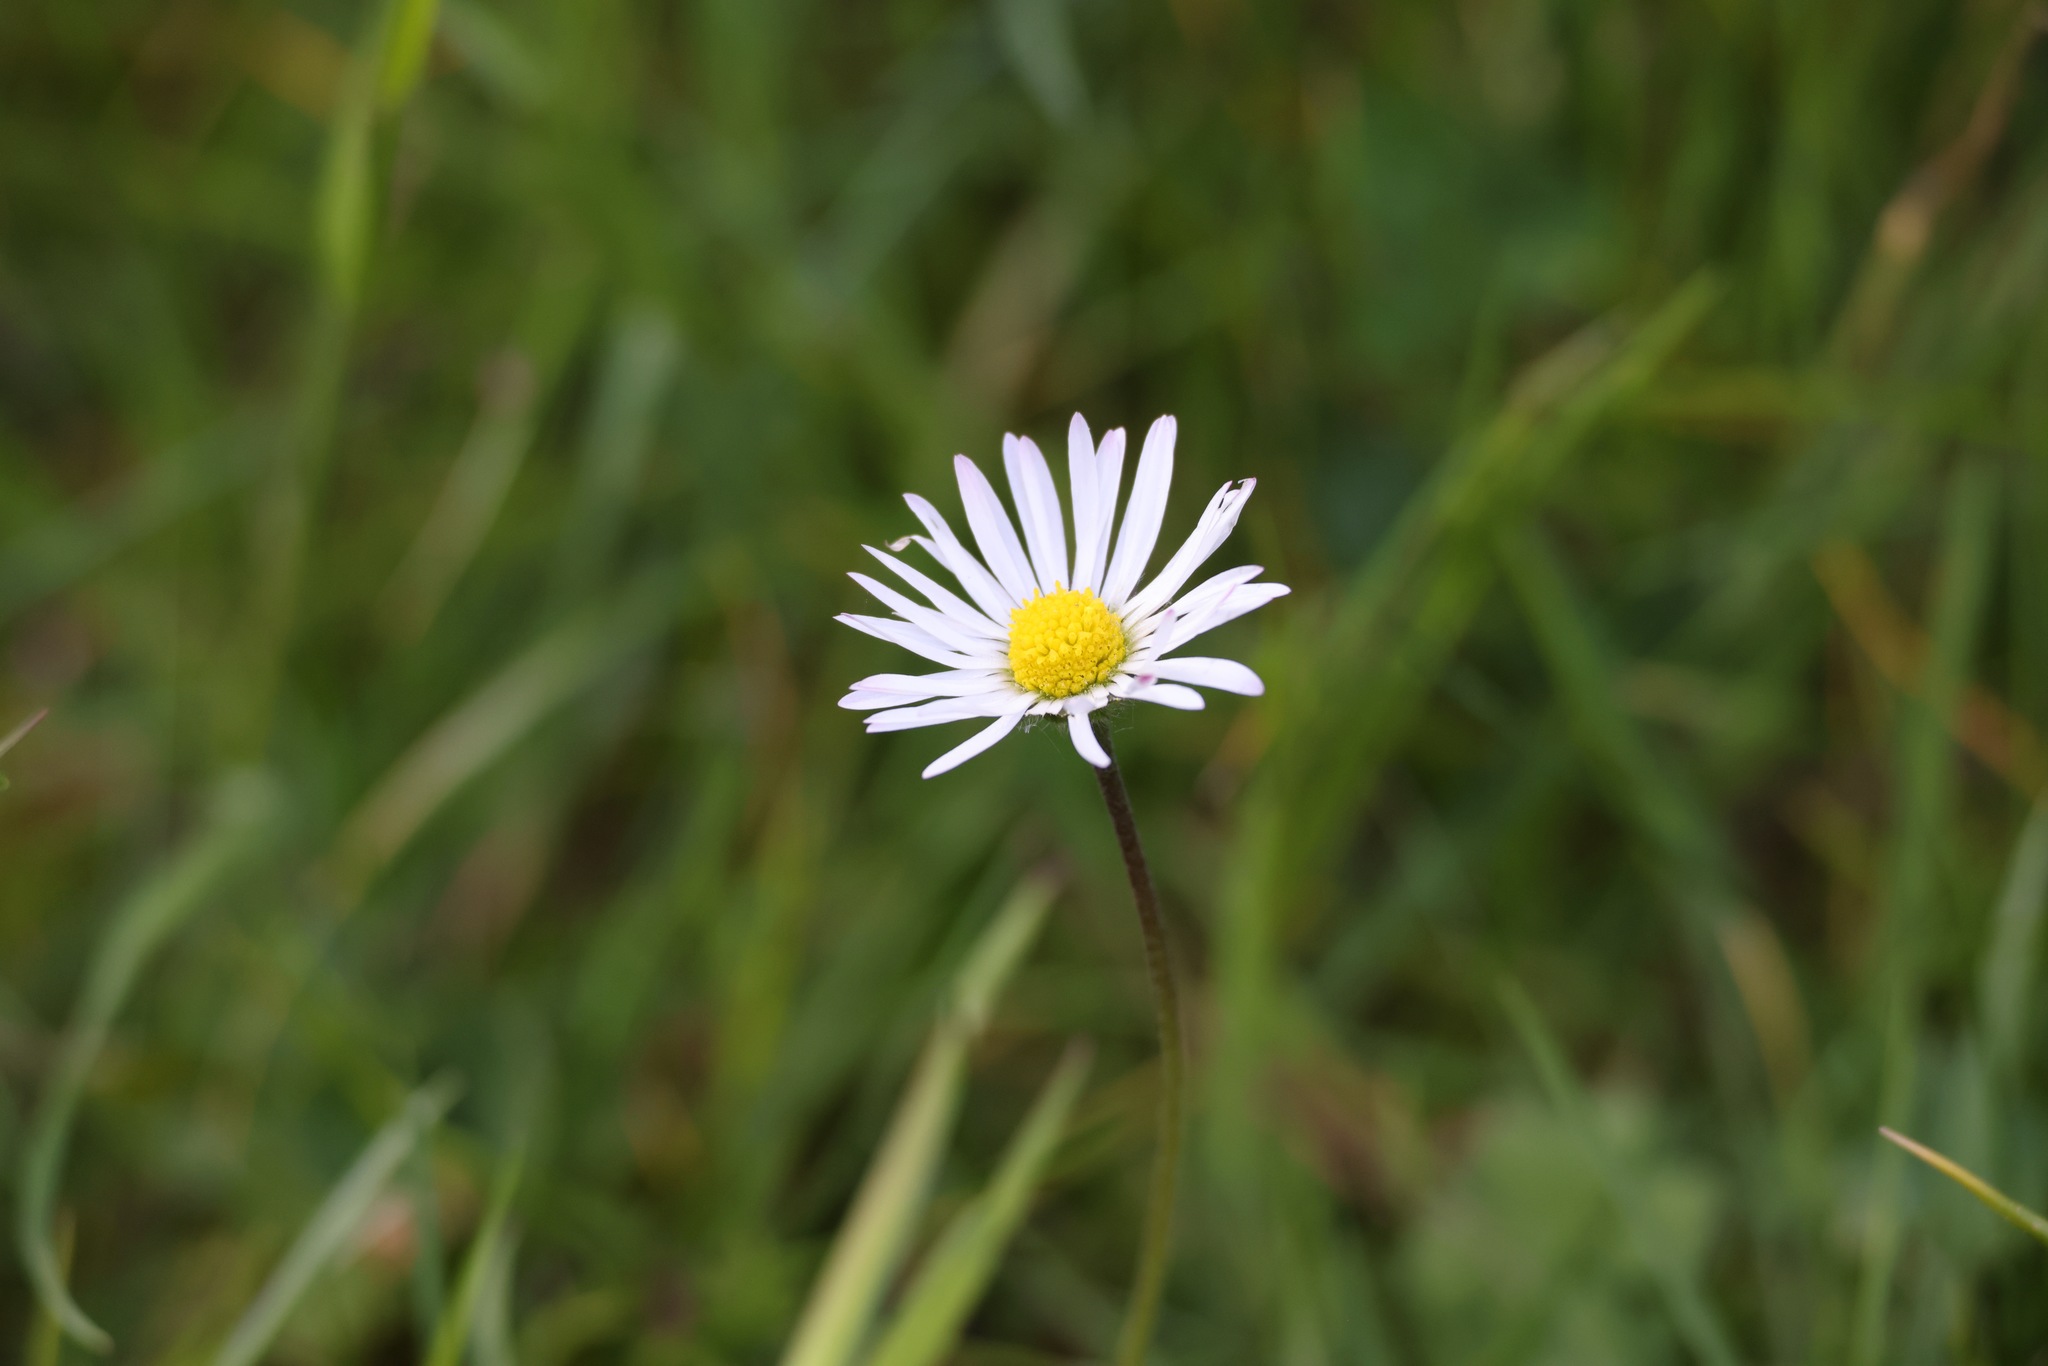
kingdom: Plantae
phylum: Tracheophyta
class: Magnoliopsida
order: Asterales
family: Asteraceae
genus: Bellis
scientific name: Bellis perennis
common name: Lawndaisy
